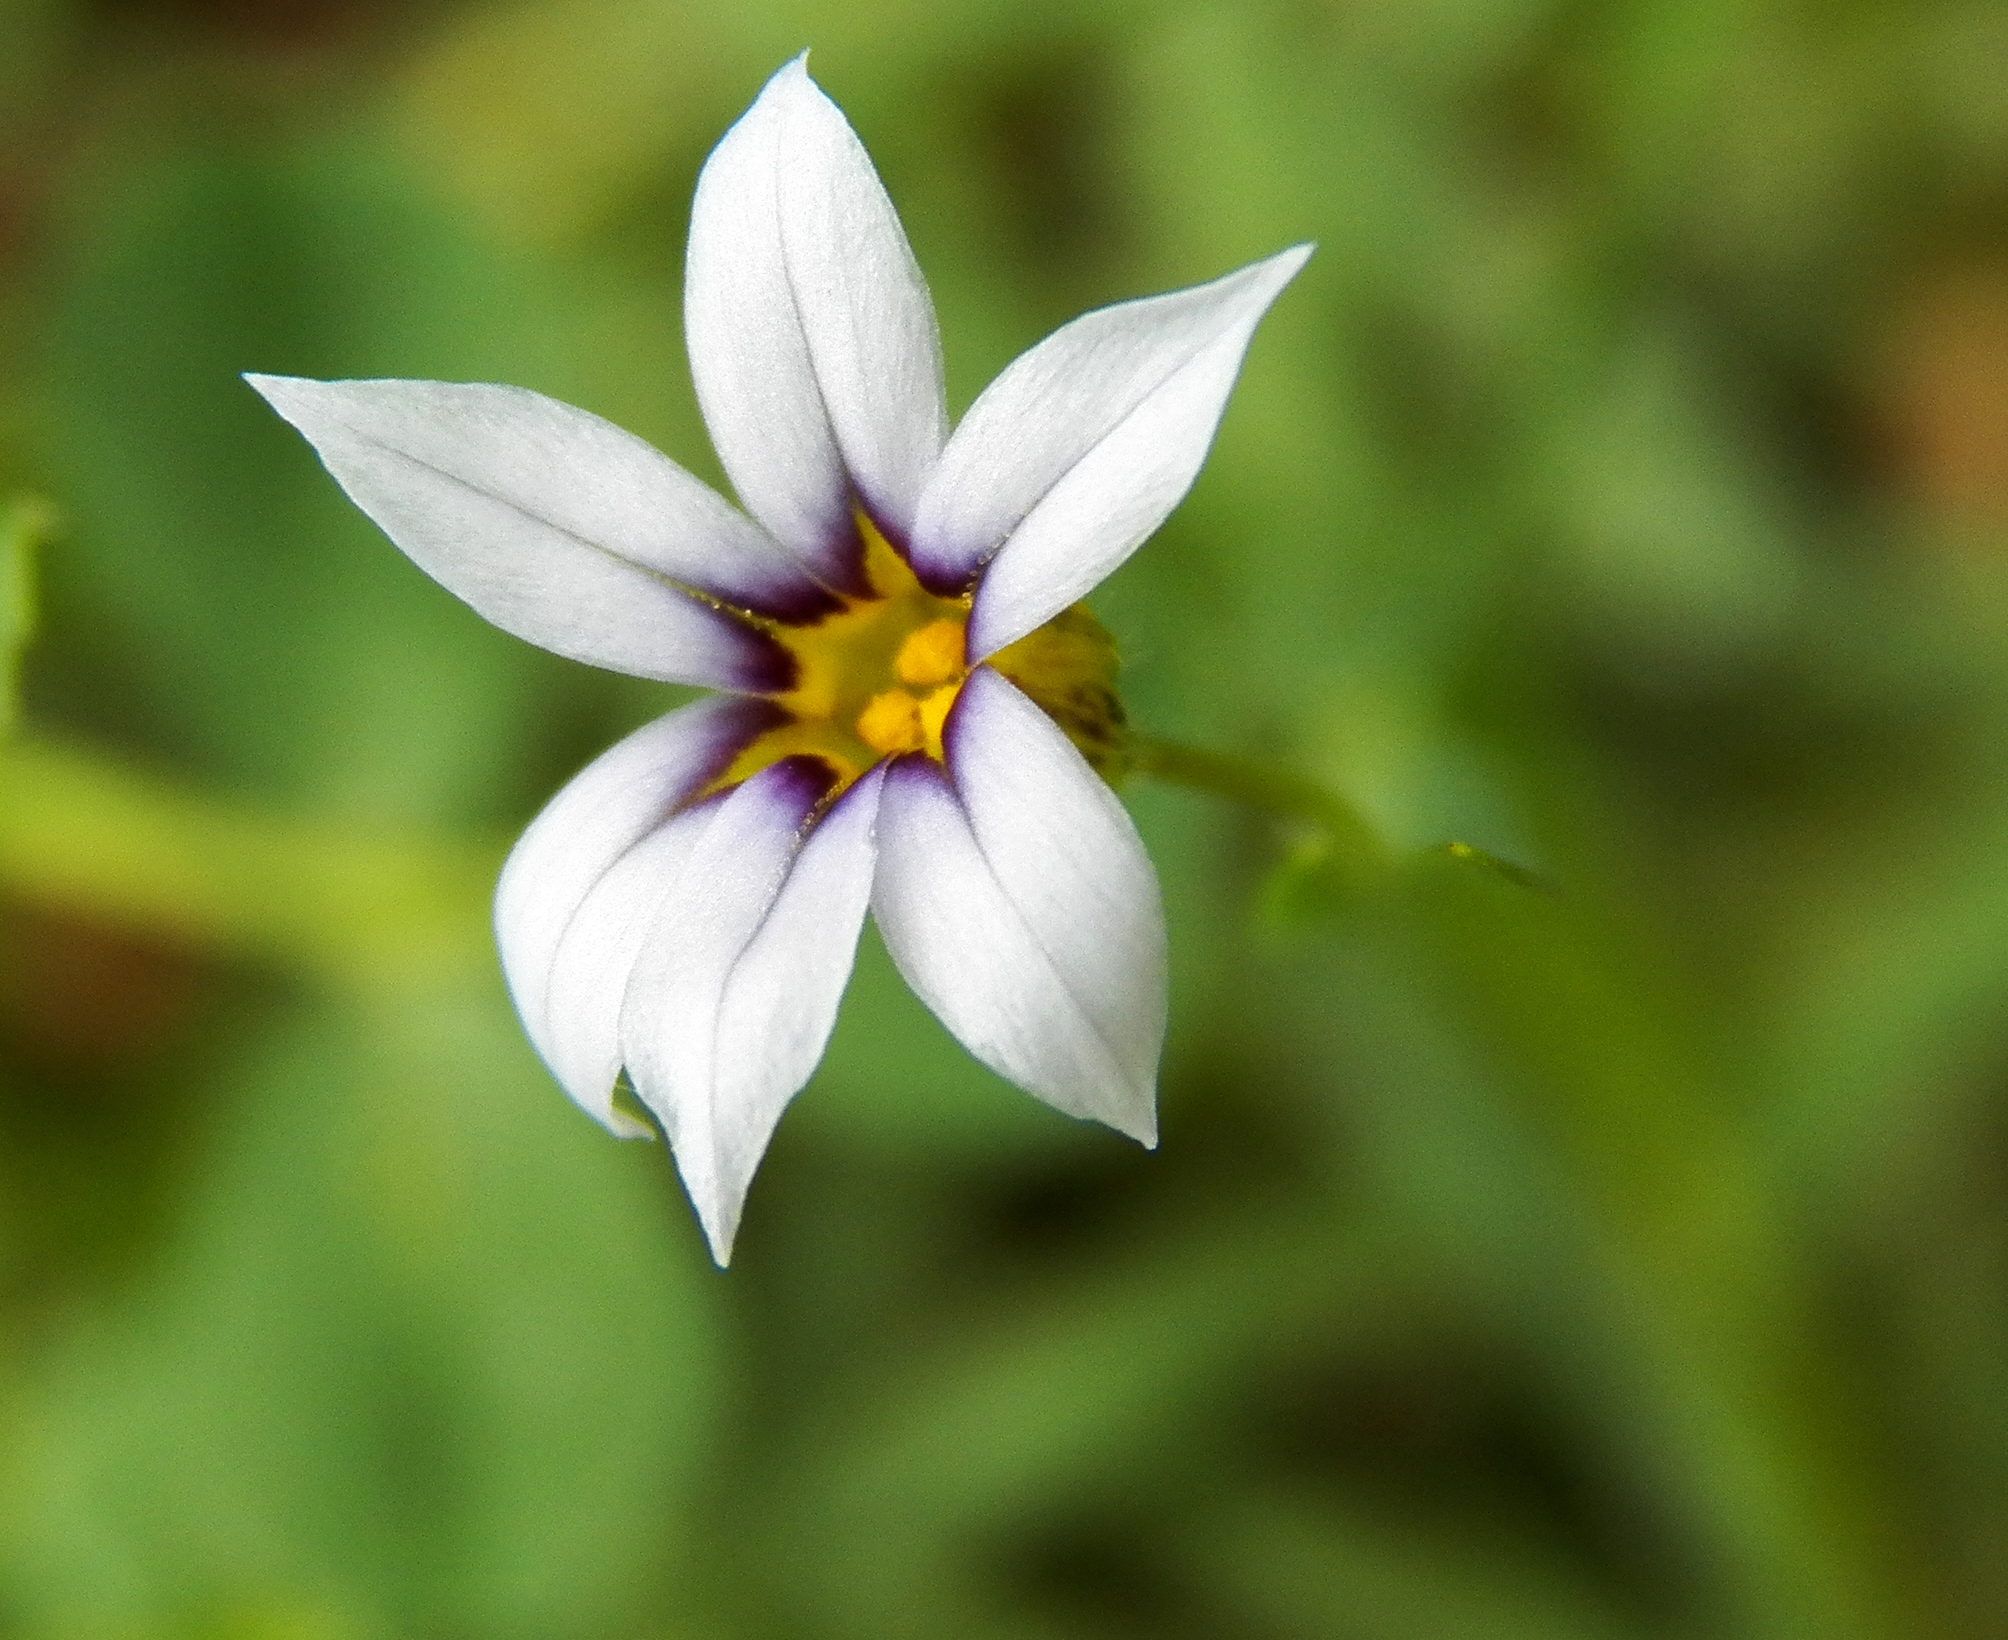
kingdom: Plantae
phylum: Tracheophyta
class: Liliopsida
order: Asparagales
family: Iridaceae
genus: Sisyrinchium
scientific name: Sisyrinchium micranthum
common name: Bermuda pigroot
